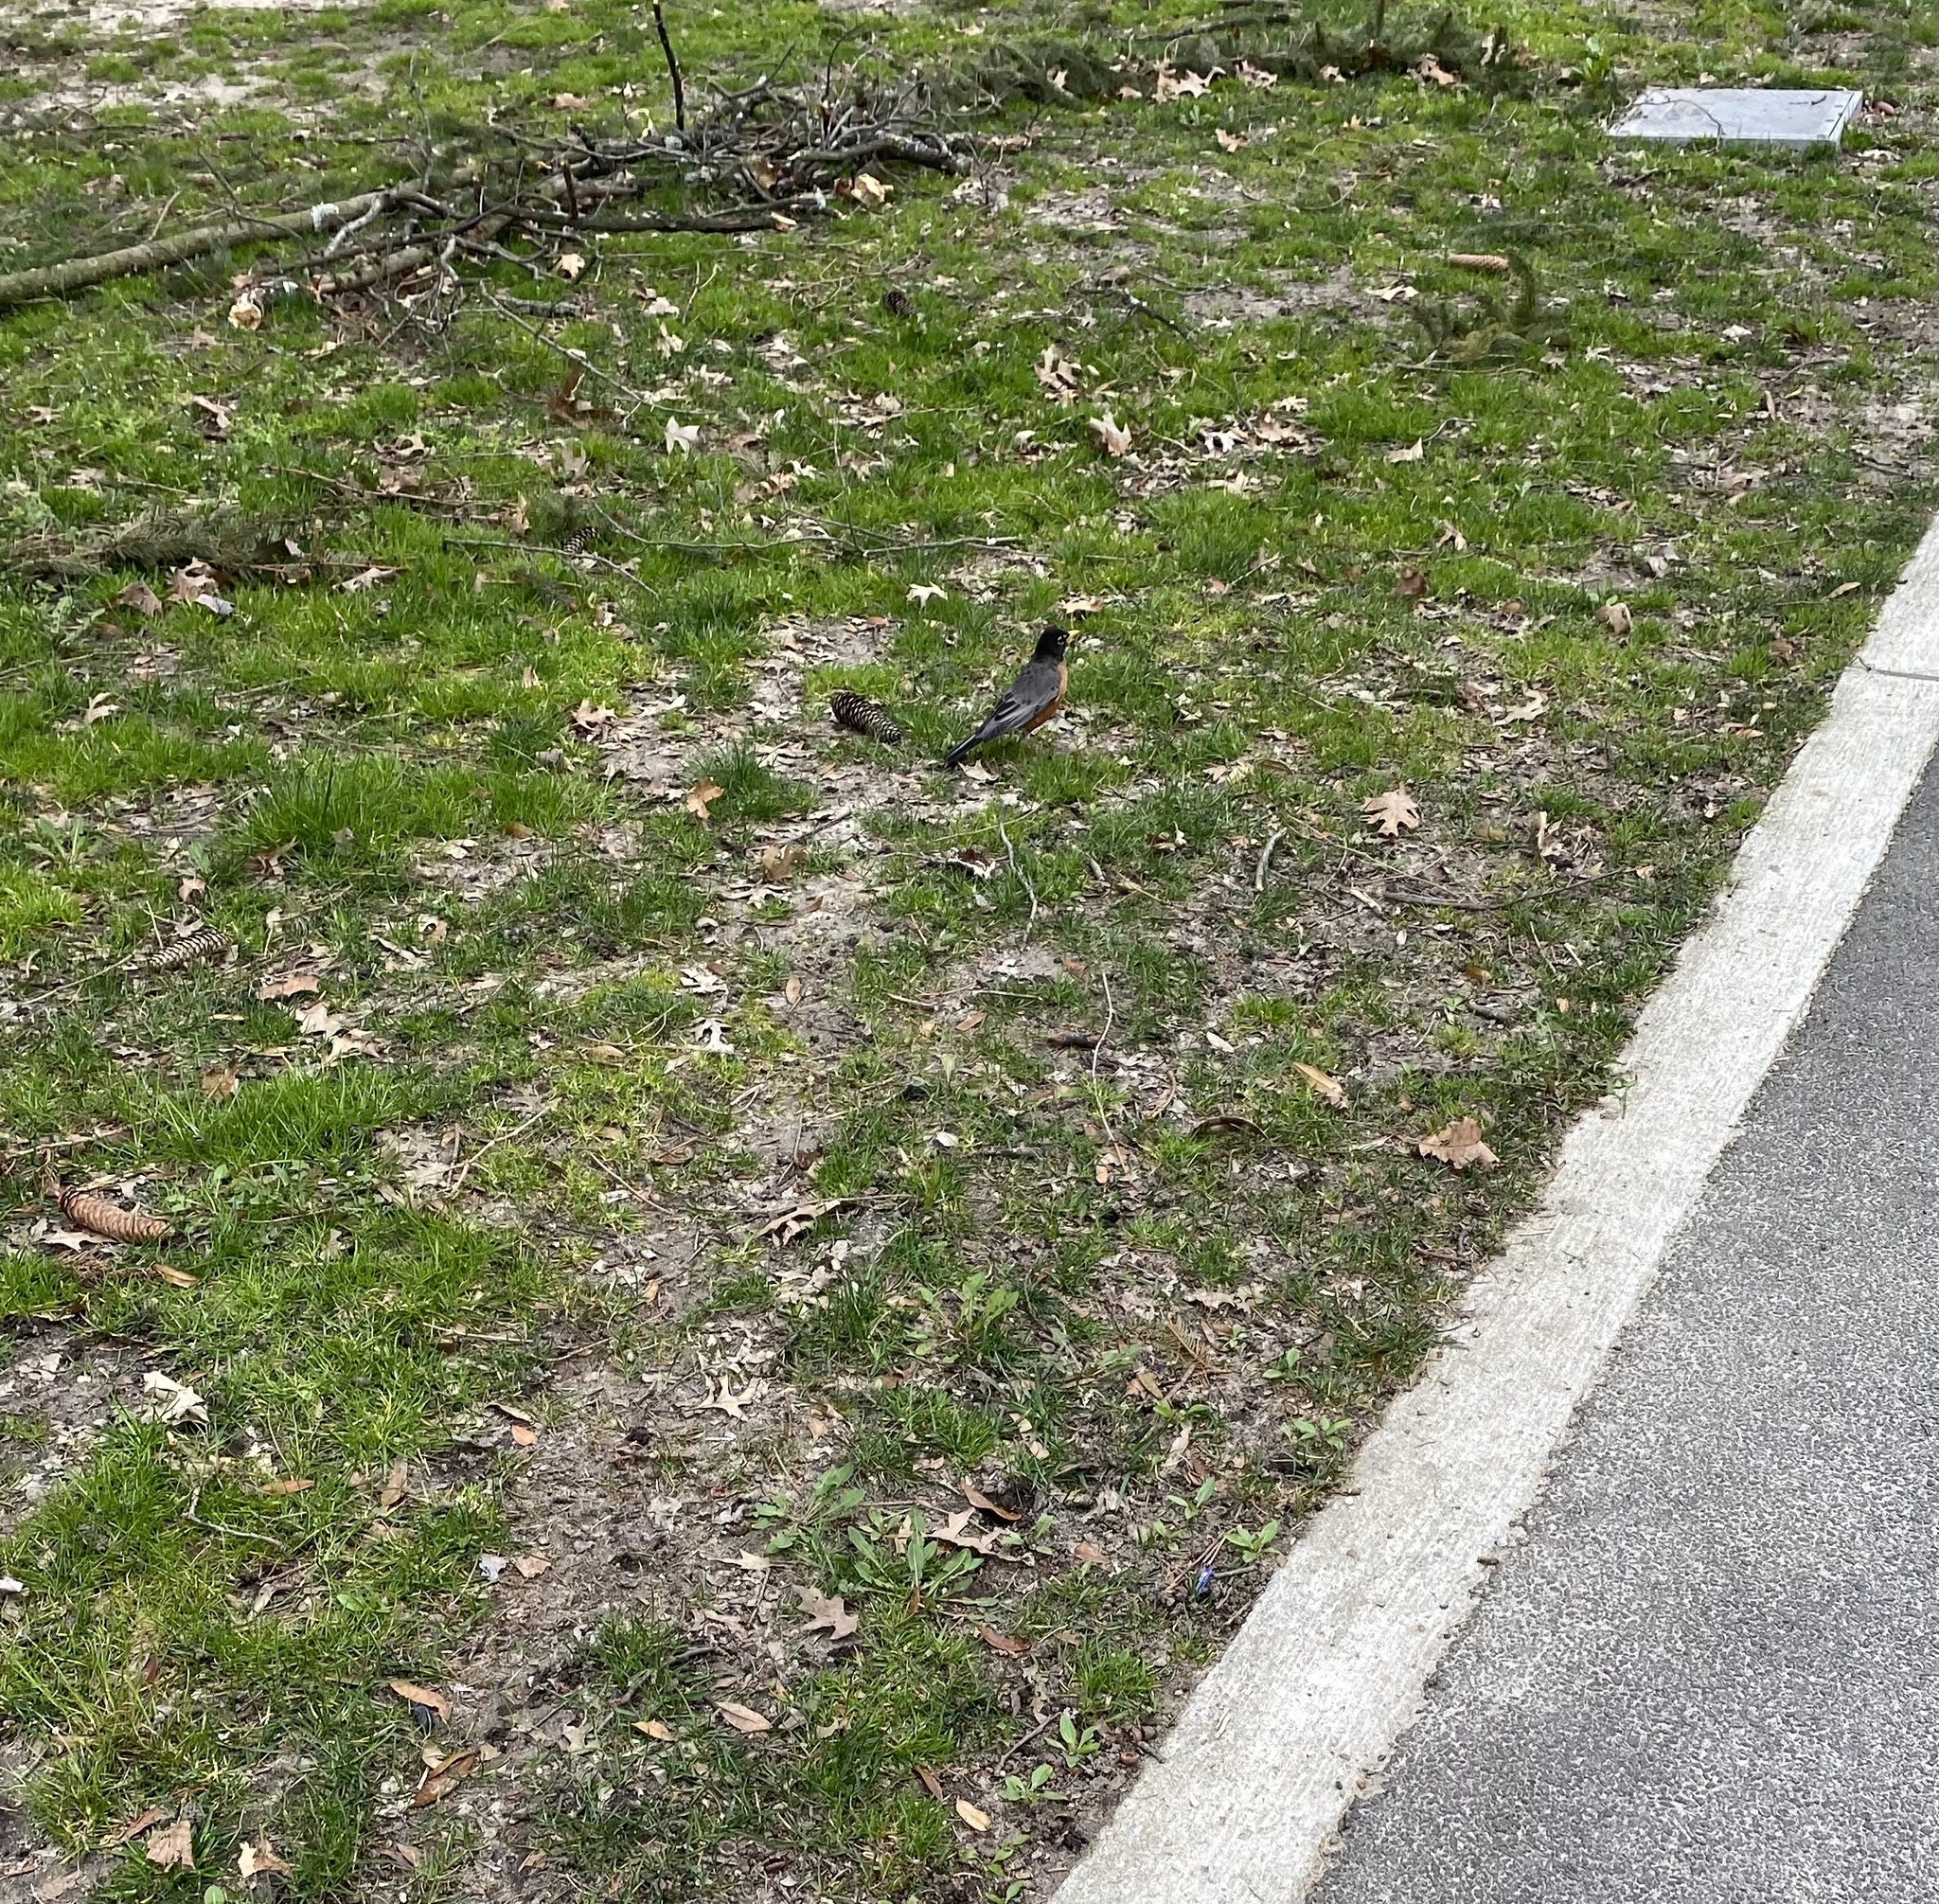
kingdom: Animalia
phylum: Chordata
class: Aves
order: Passeriformes
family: Turdidae
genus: Turdus
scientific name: Turdus migratorius
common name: American robin
